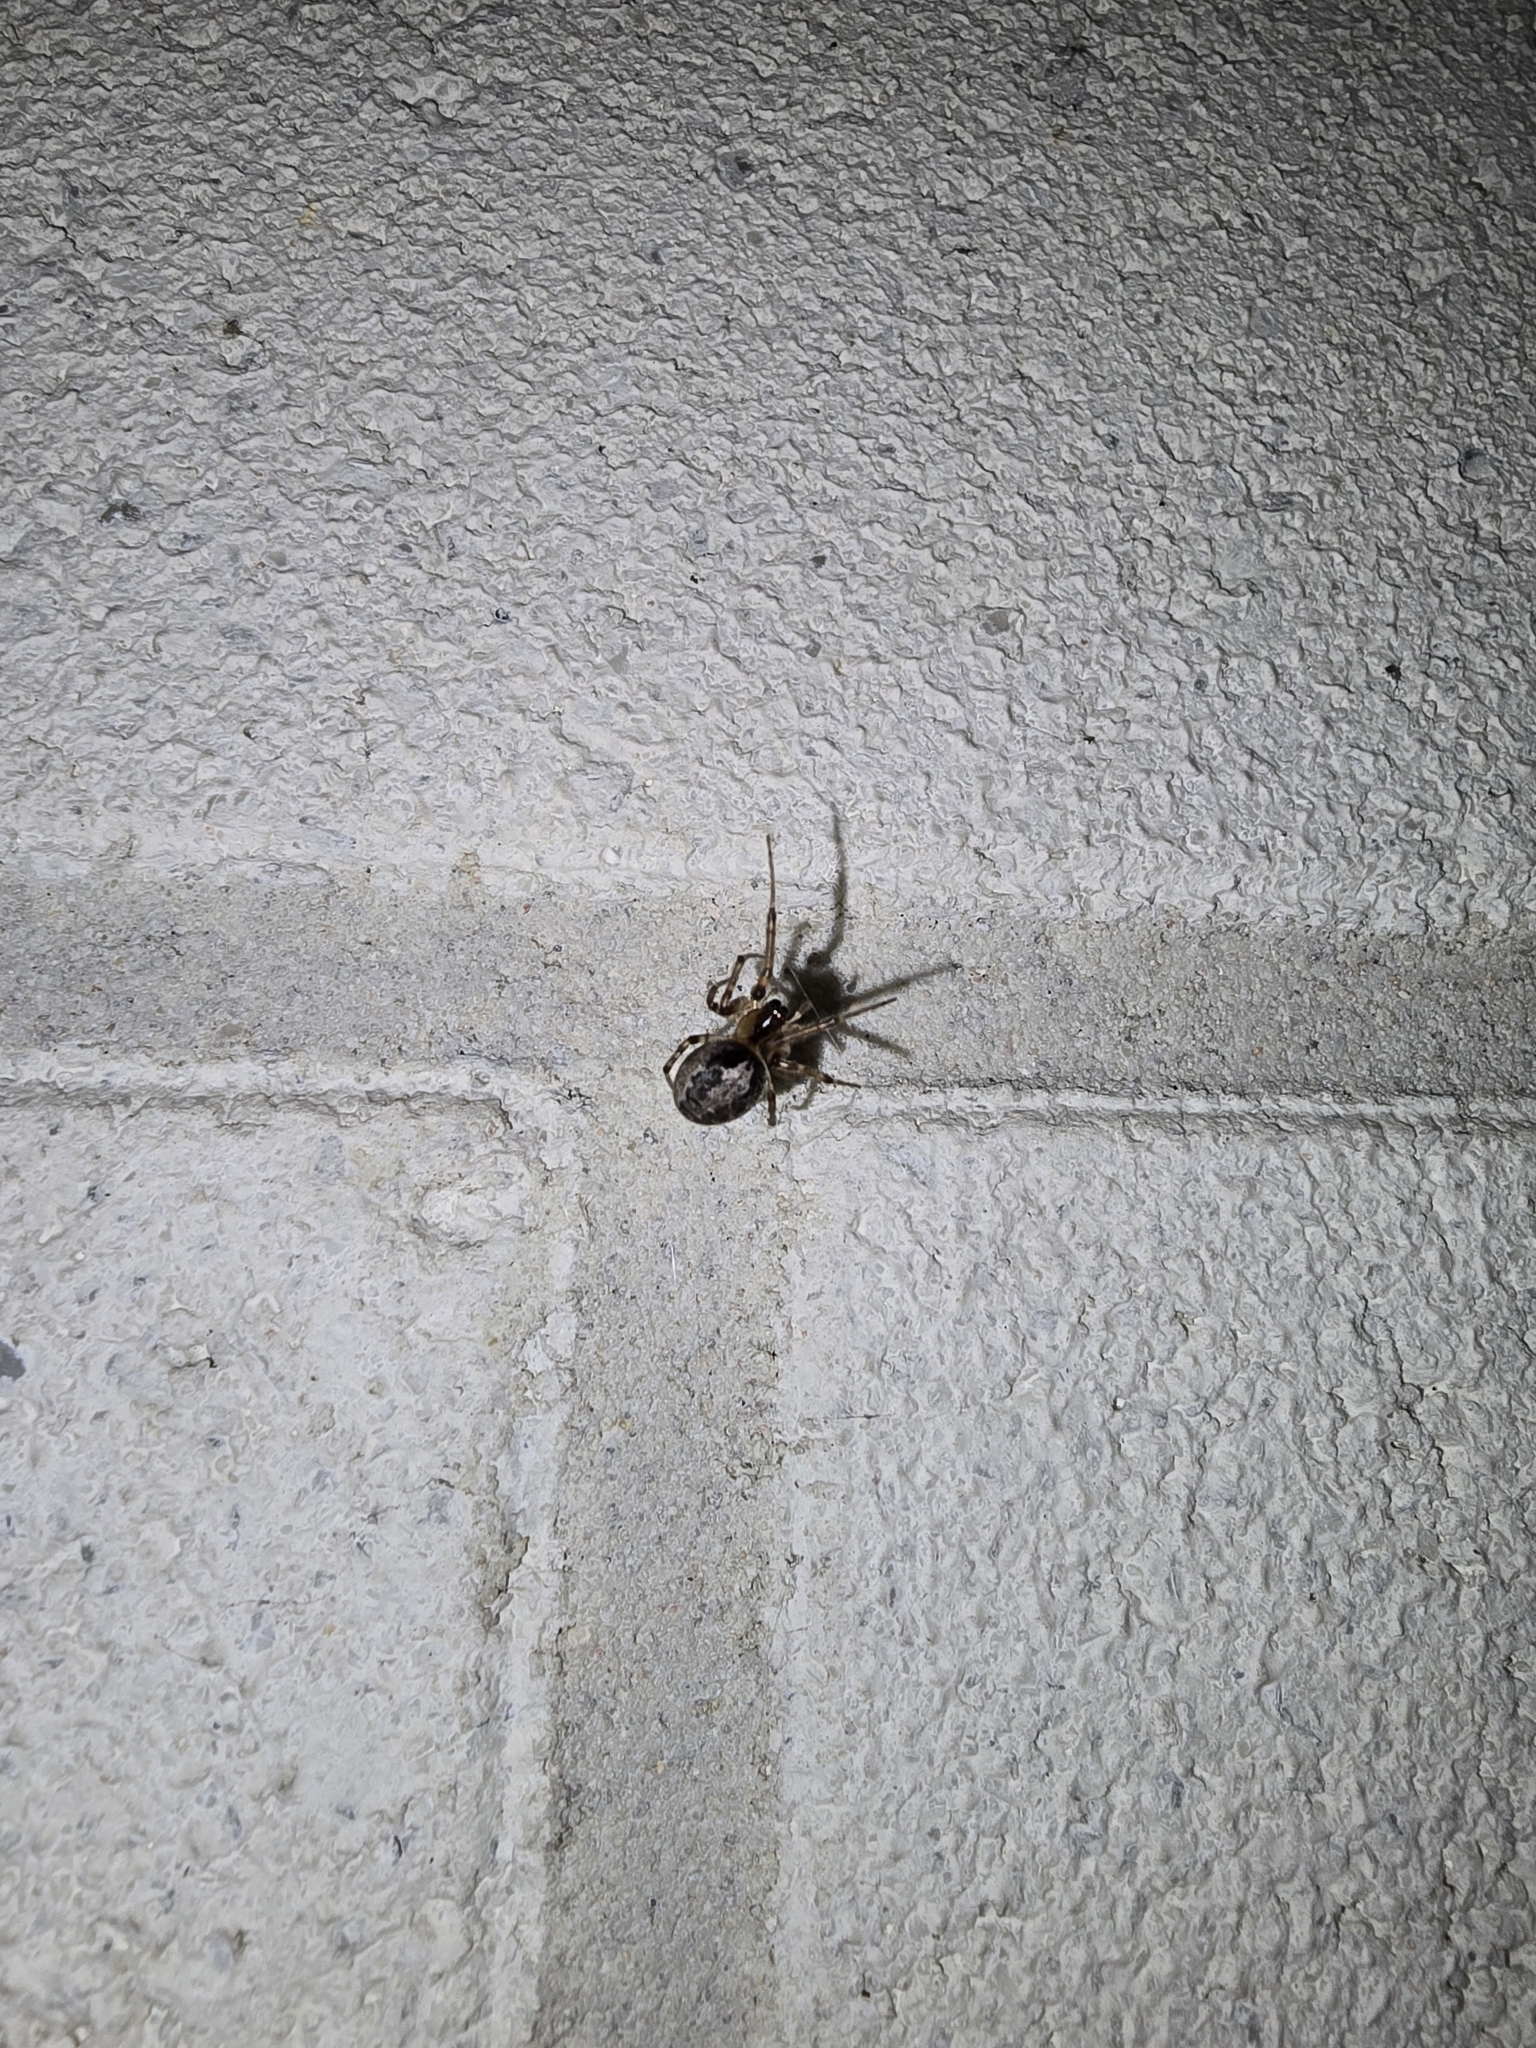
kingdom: Animalia
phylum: Arthropoda
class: Arachnida
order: Araneae
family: Araneidae
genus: Zygiella
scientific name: Zygiella x-notata
